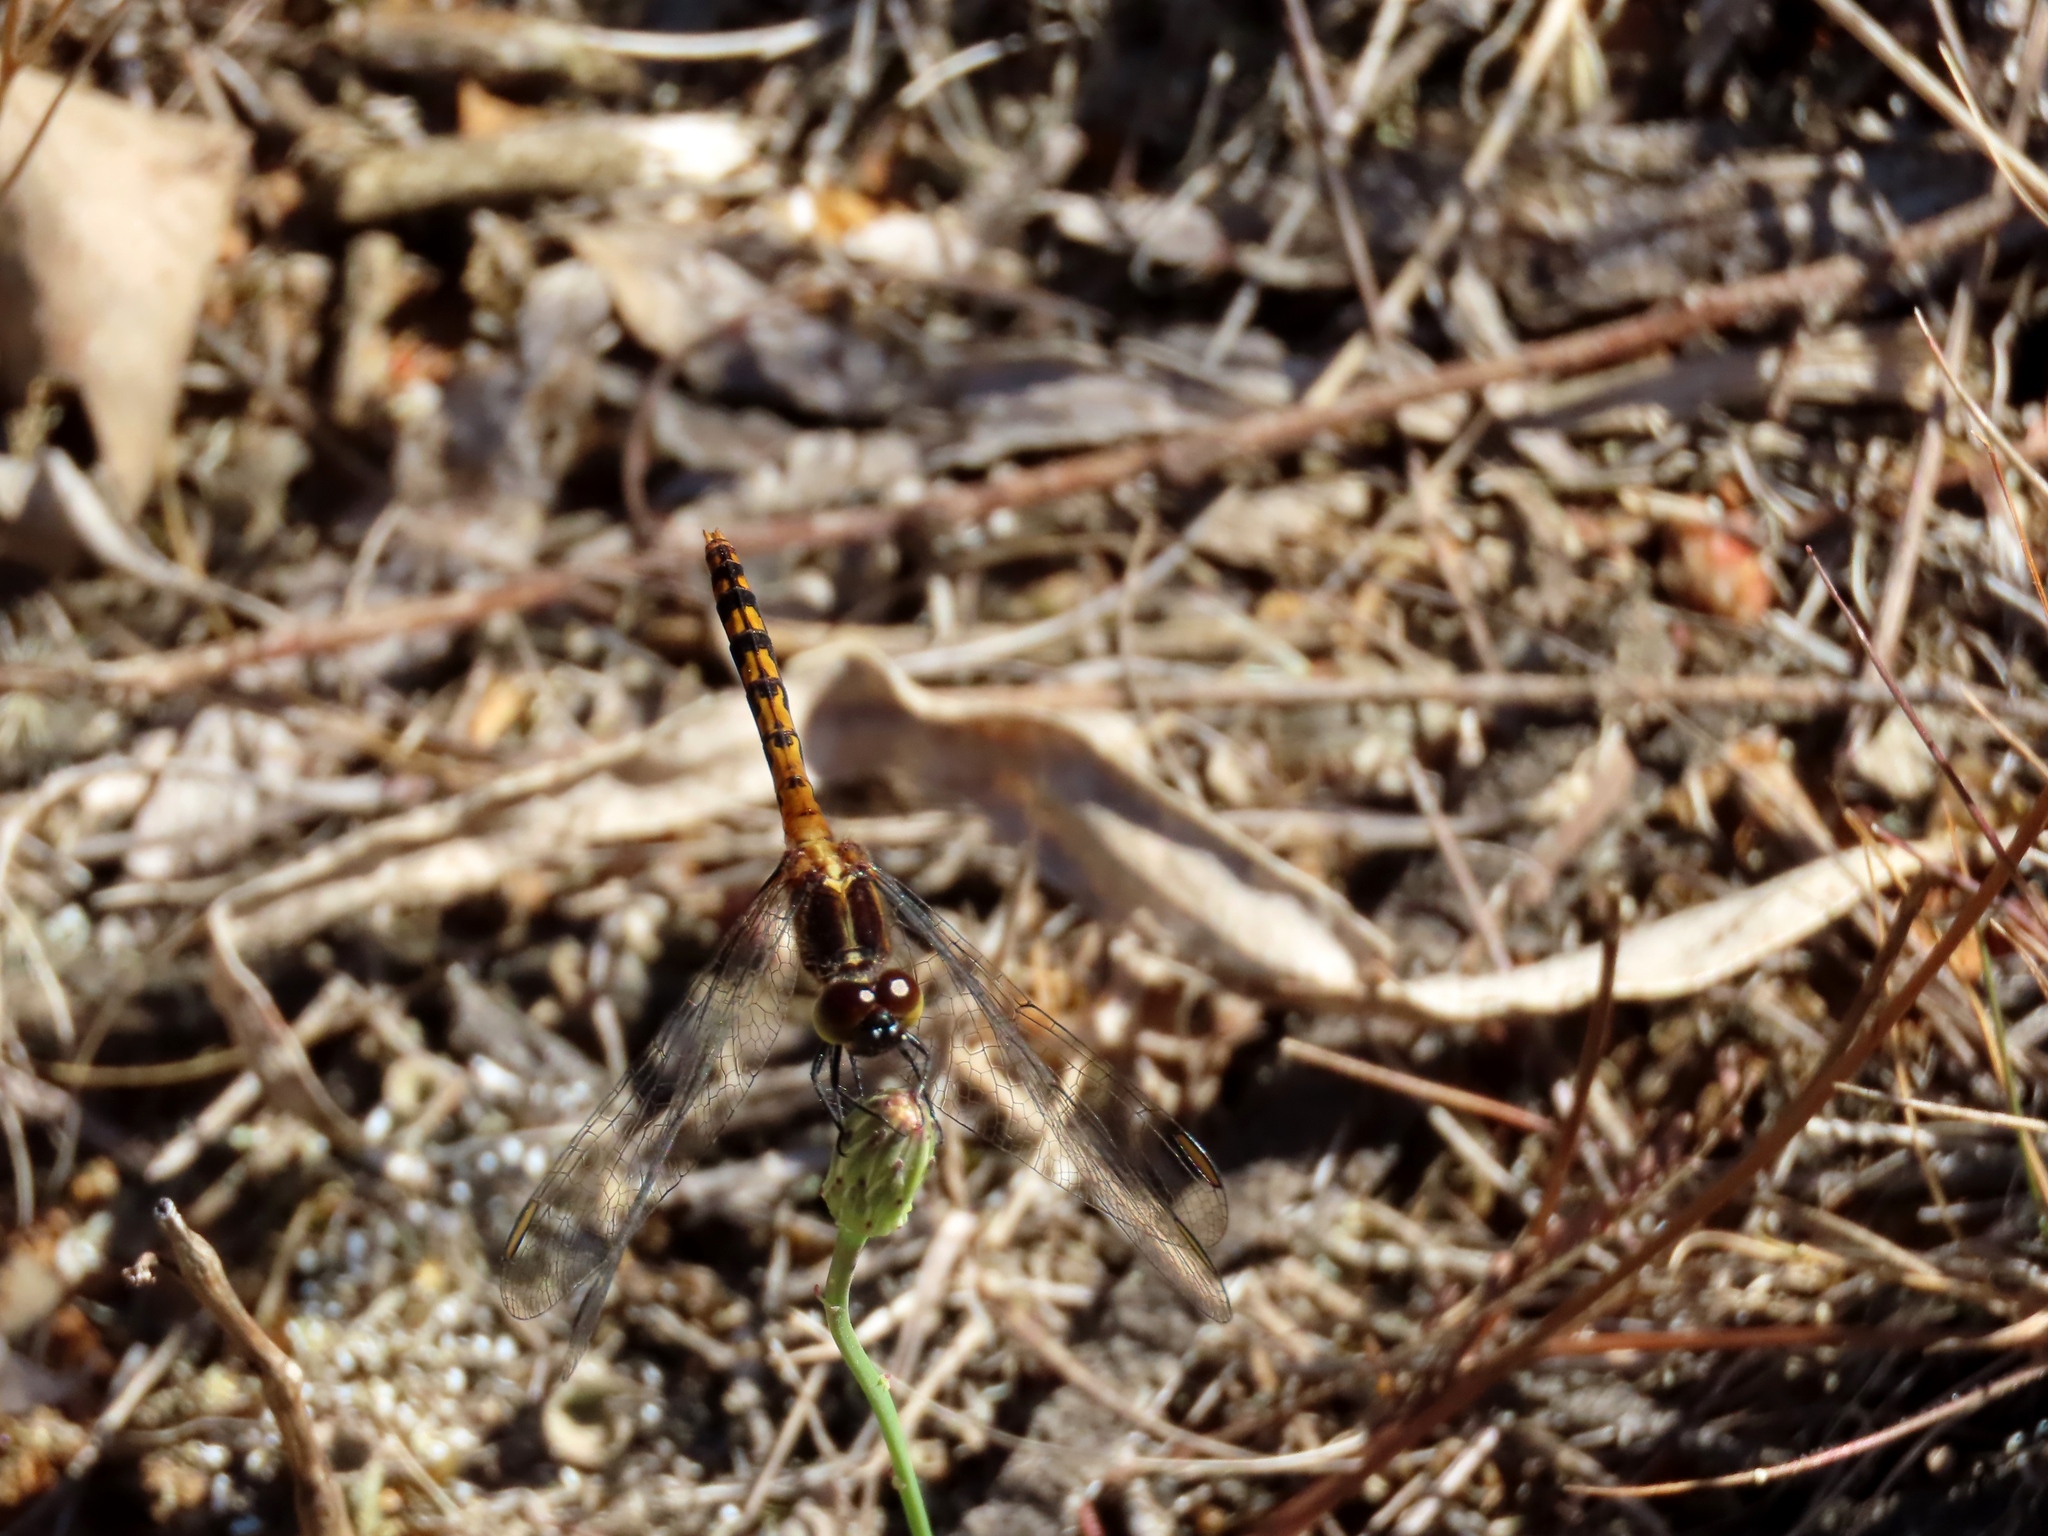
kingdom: Animalia
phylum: Arthropoda
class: Insecta
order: Odonata
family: Libellulidae
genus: Diplacodes
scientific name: Diplacodes melanopsis
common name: Black-faced percher
